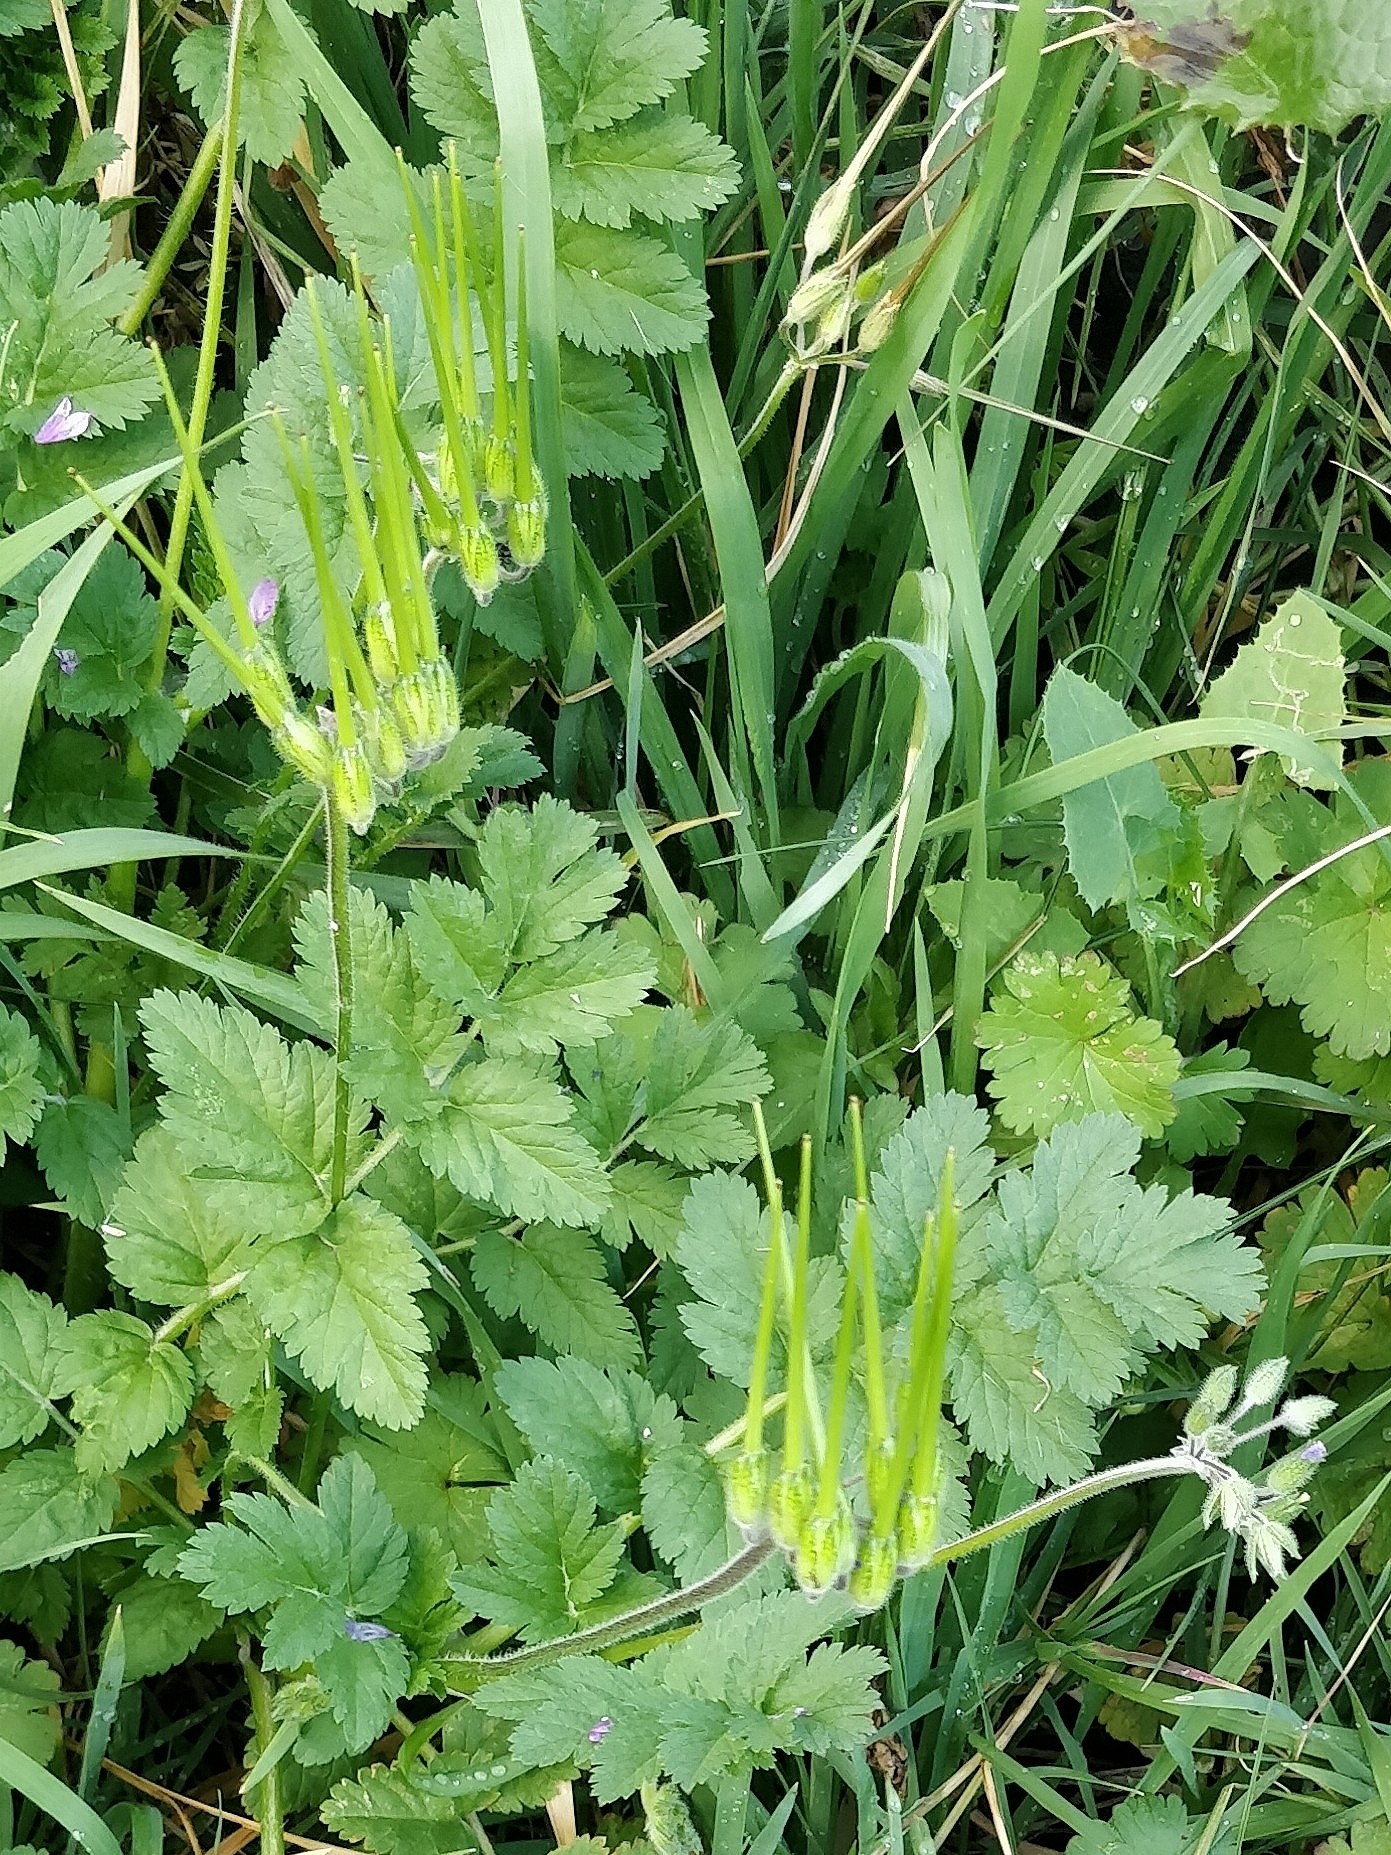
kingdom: Plantae
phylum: Tracheophyta
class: Magnoliopsida
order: Geraniales
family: Geraniaceae
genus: Erodium
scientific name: Erodium moschatum
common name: Musk stork's-bill
